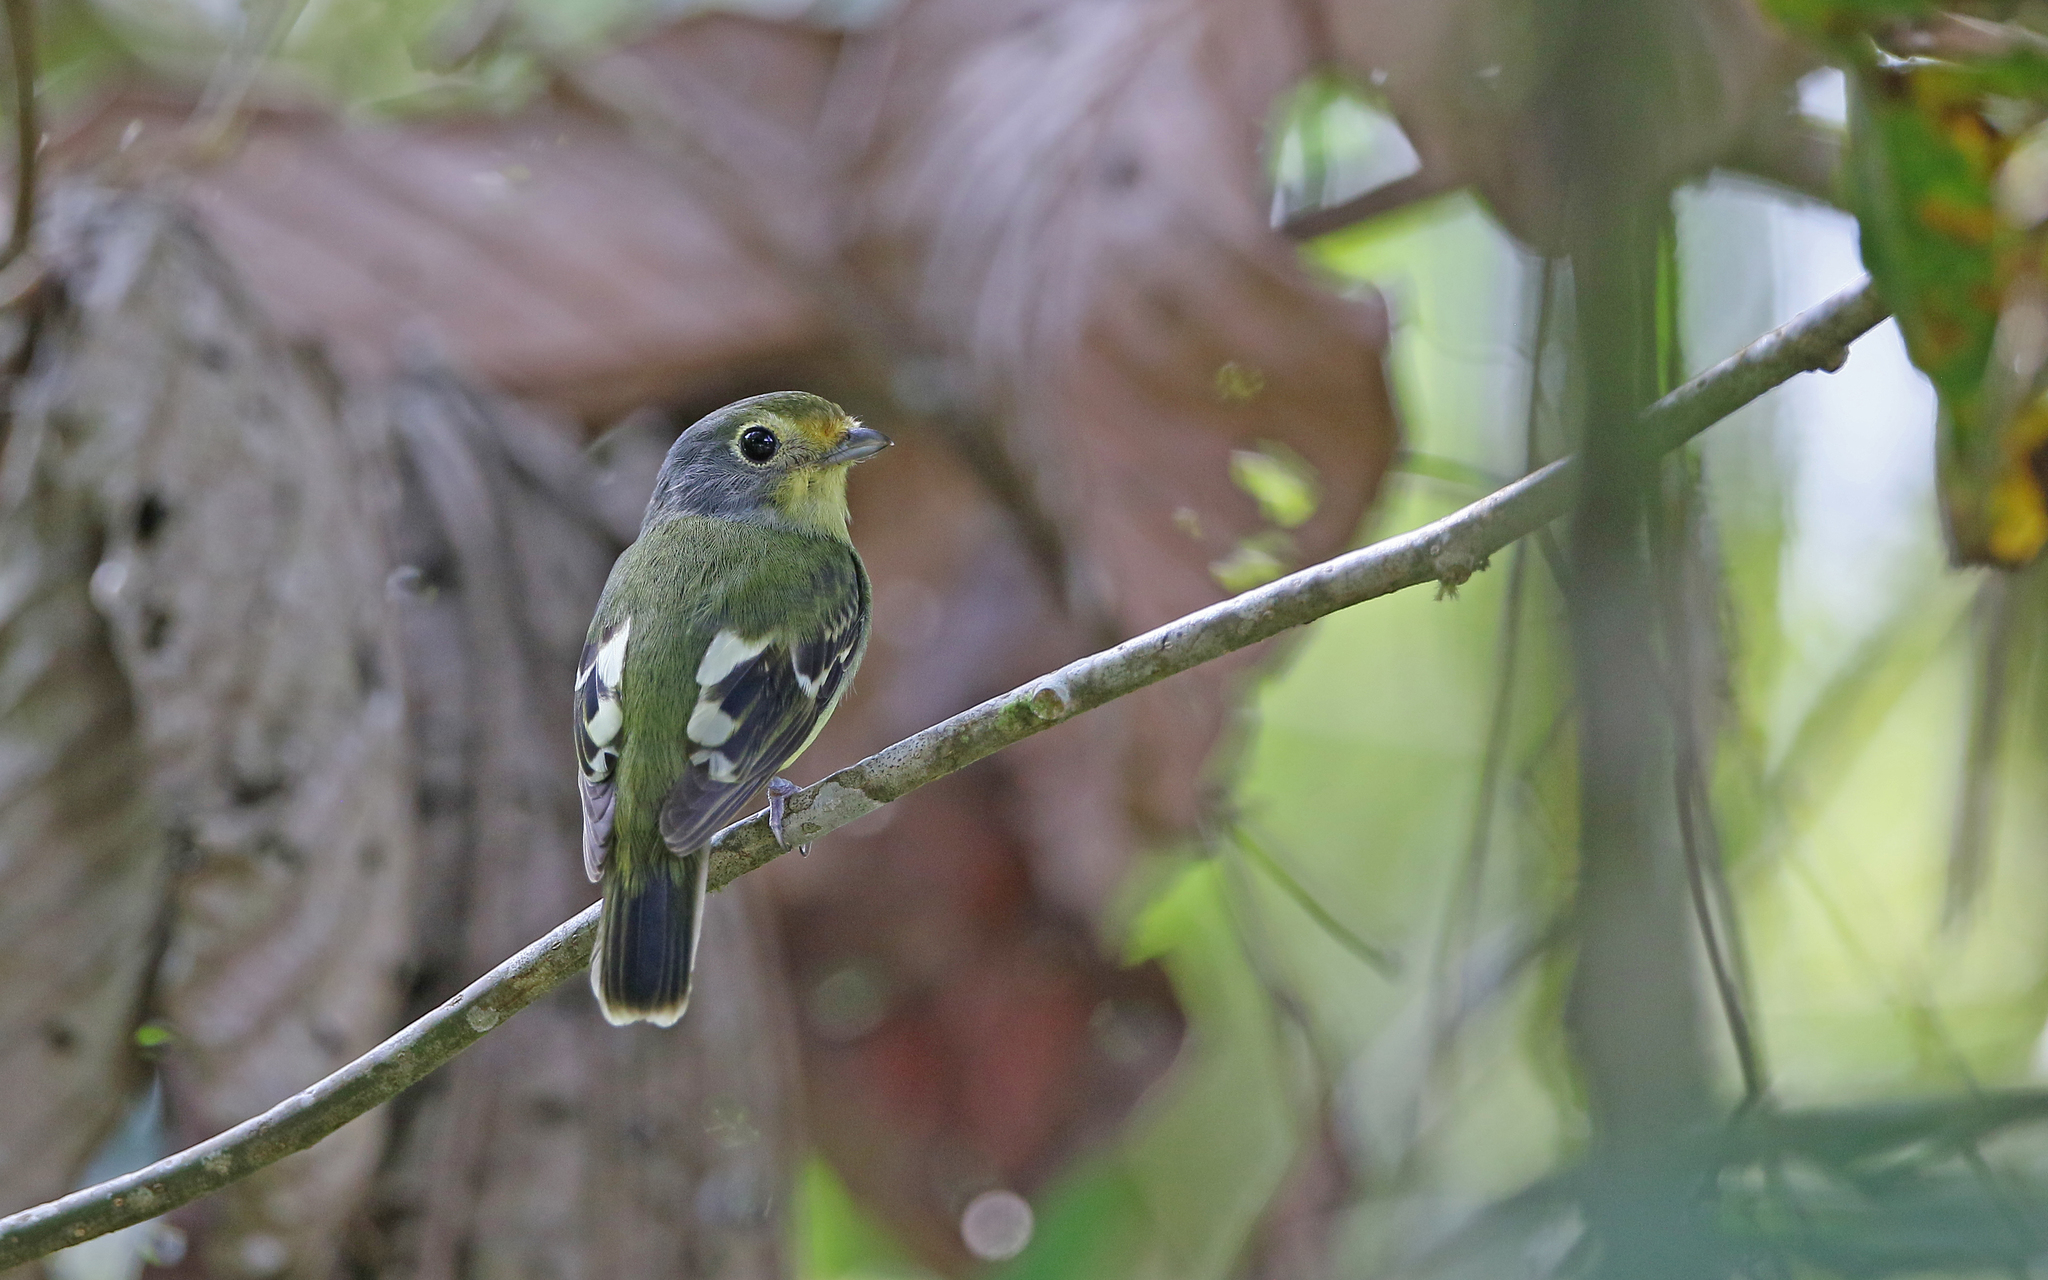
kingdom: Animalia
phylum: Chordata
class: Aves
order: Passeriformes
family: Cotingidae
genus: Piprites
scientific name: Piprites chloris
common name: Wing-barred piprites
